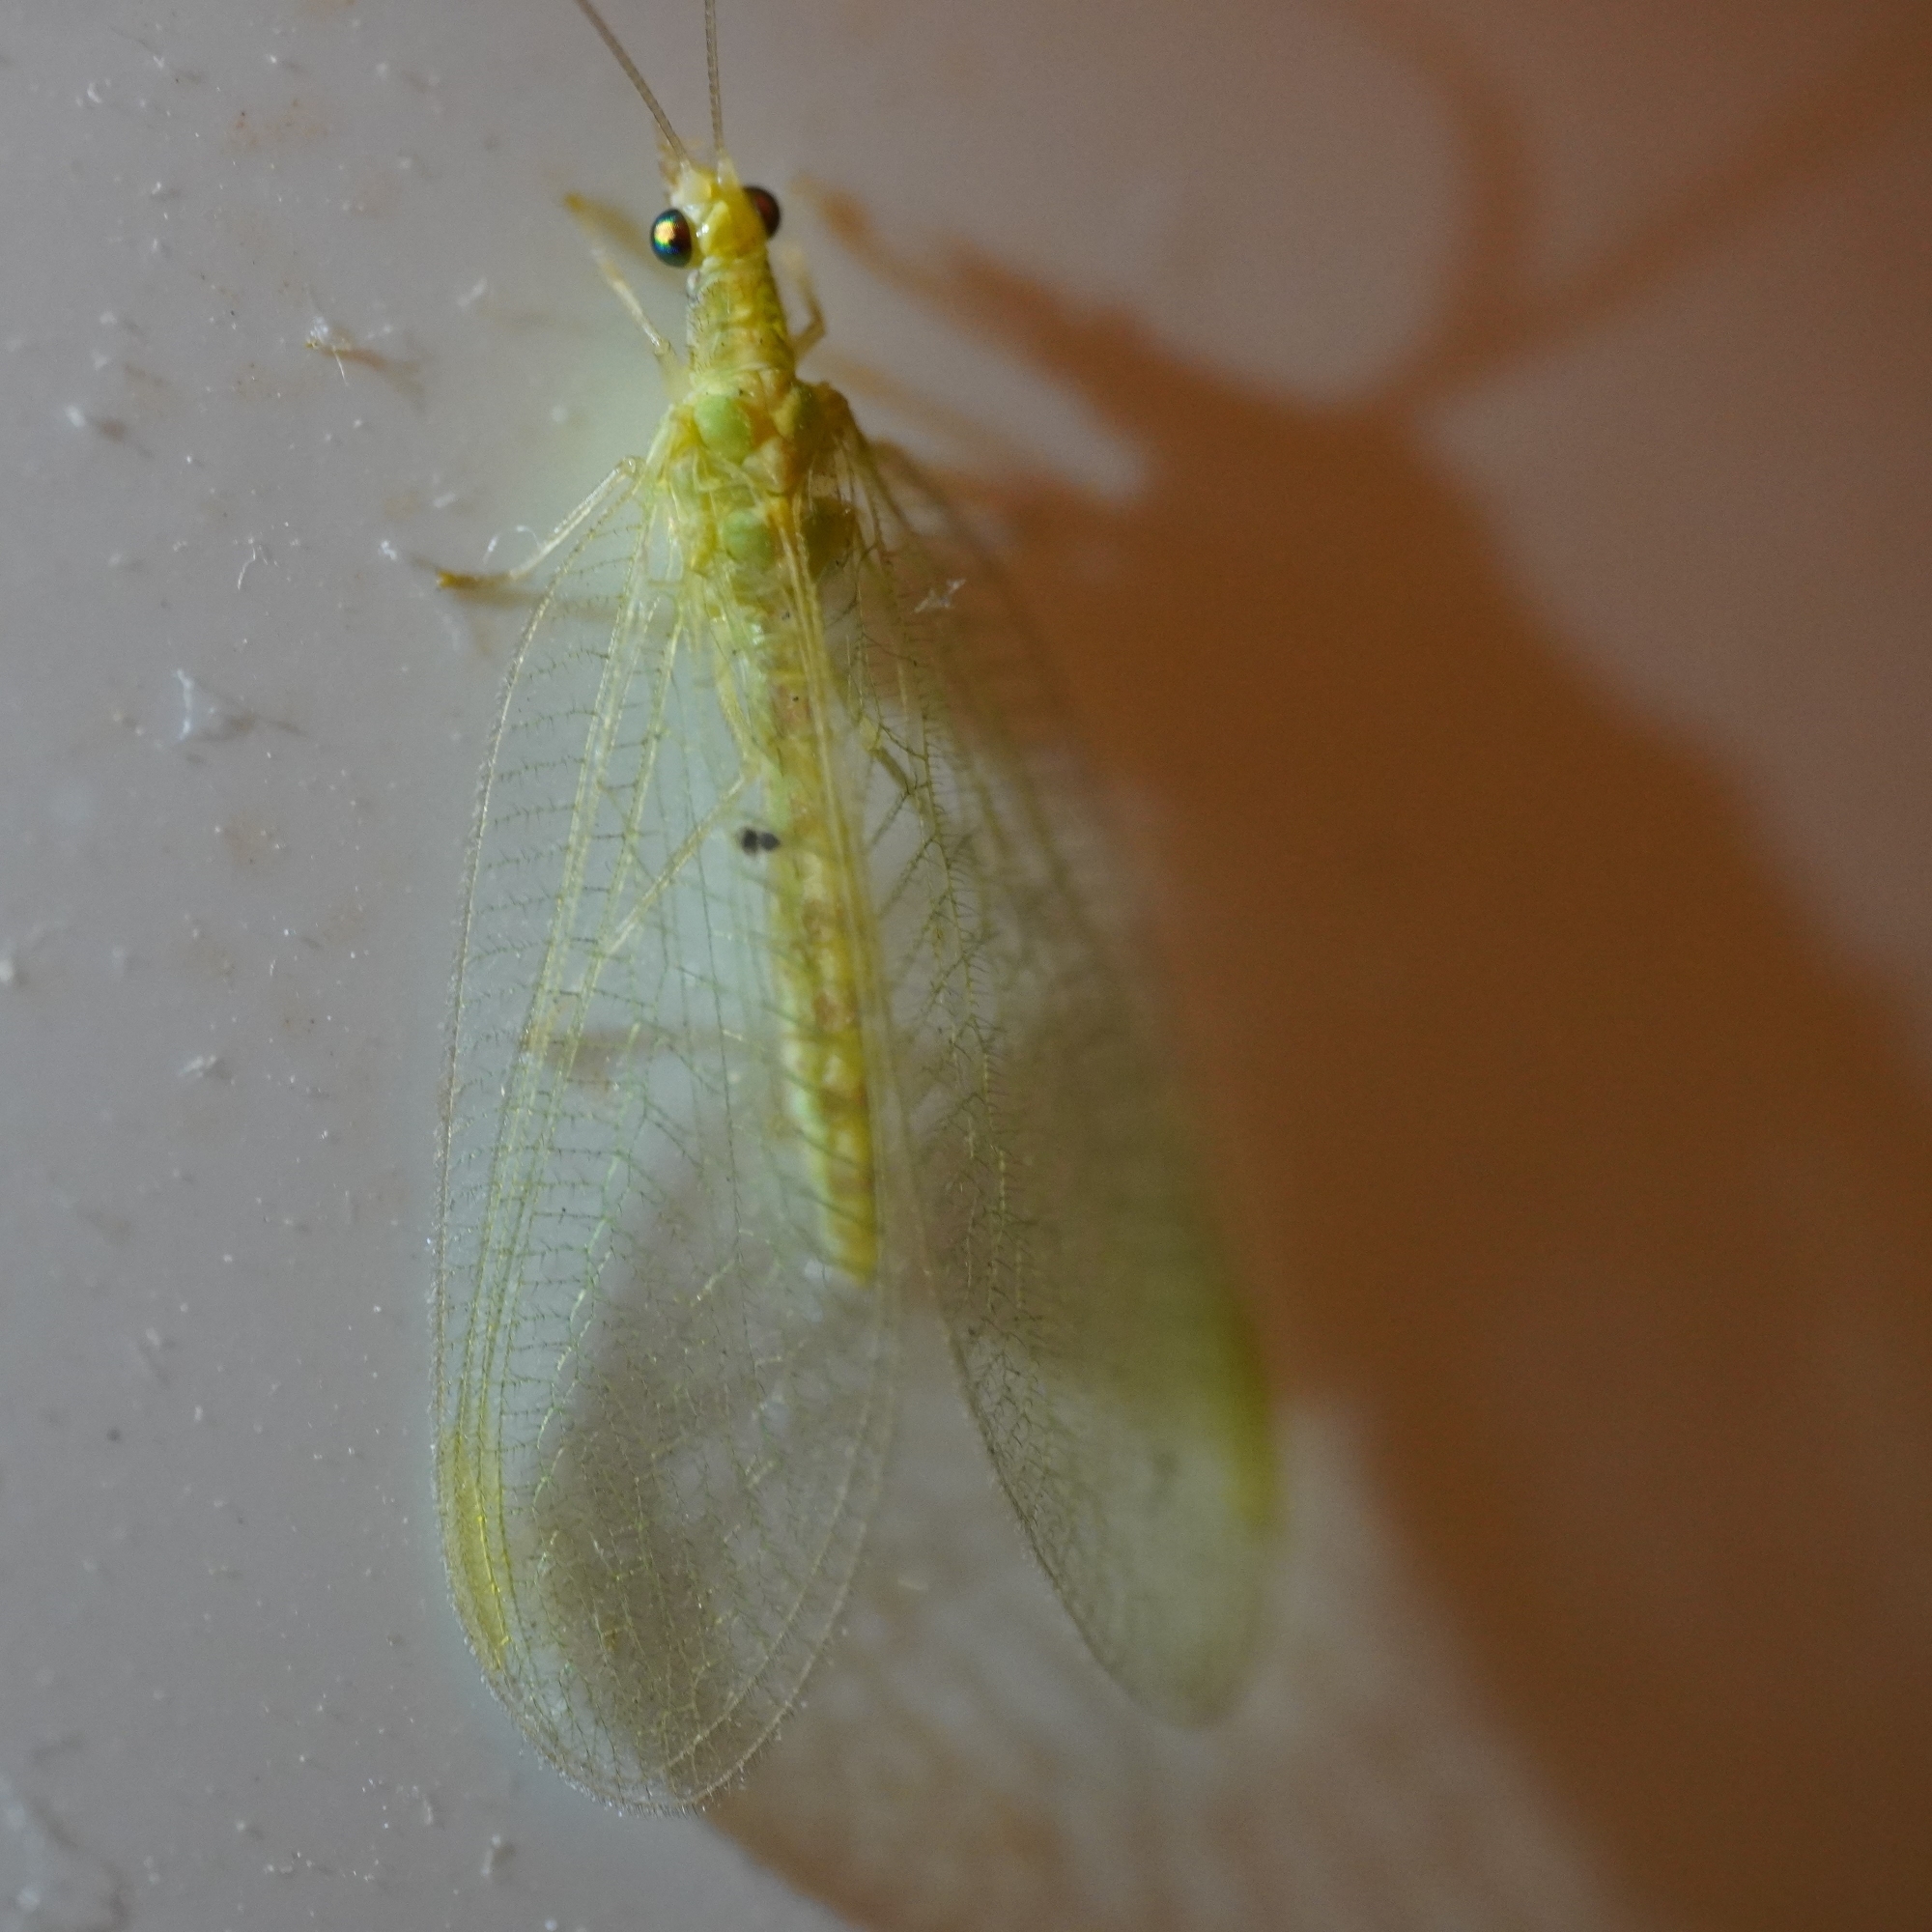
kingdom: Animalia
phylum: Arthropoda
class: Insecta
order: Neuroptera
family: Chrysopidae
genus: Chrysoperla
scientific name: Chrysoperla
